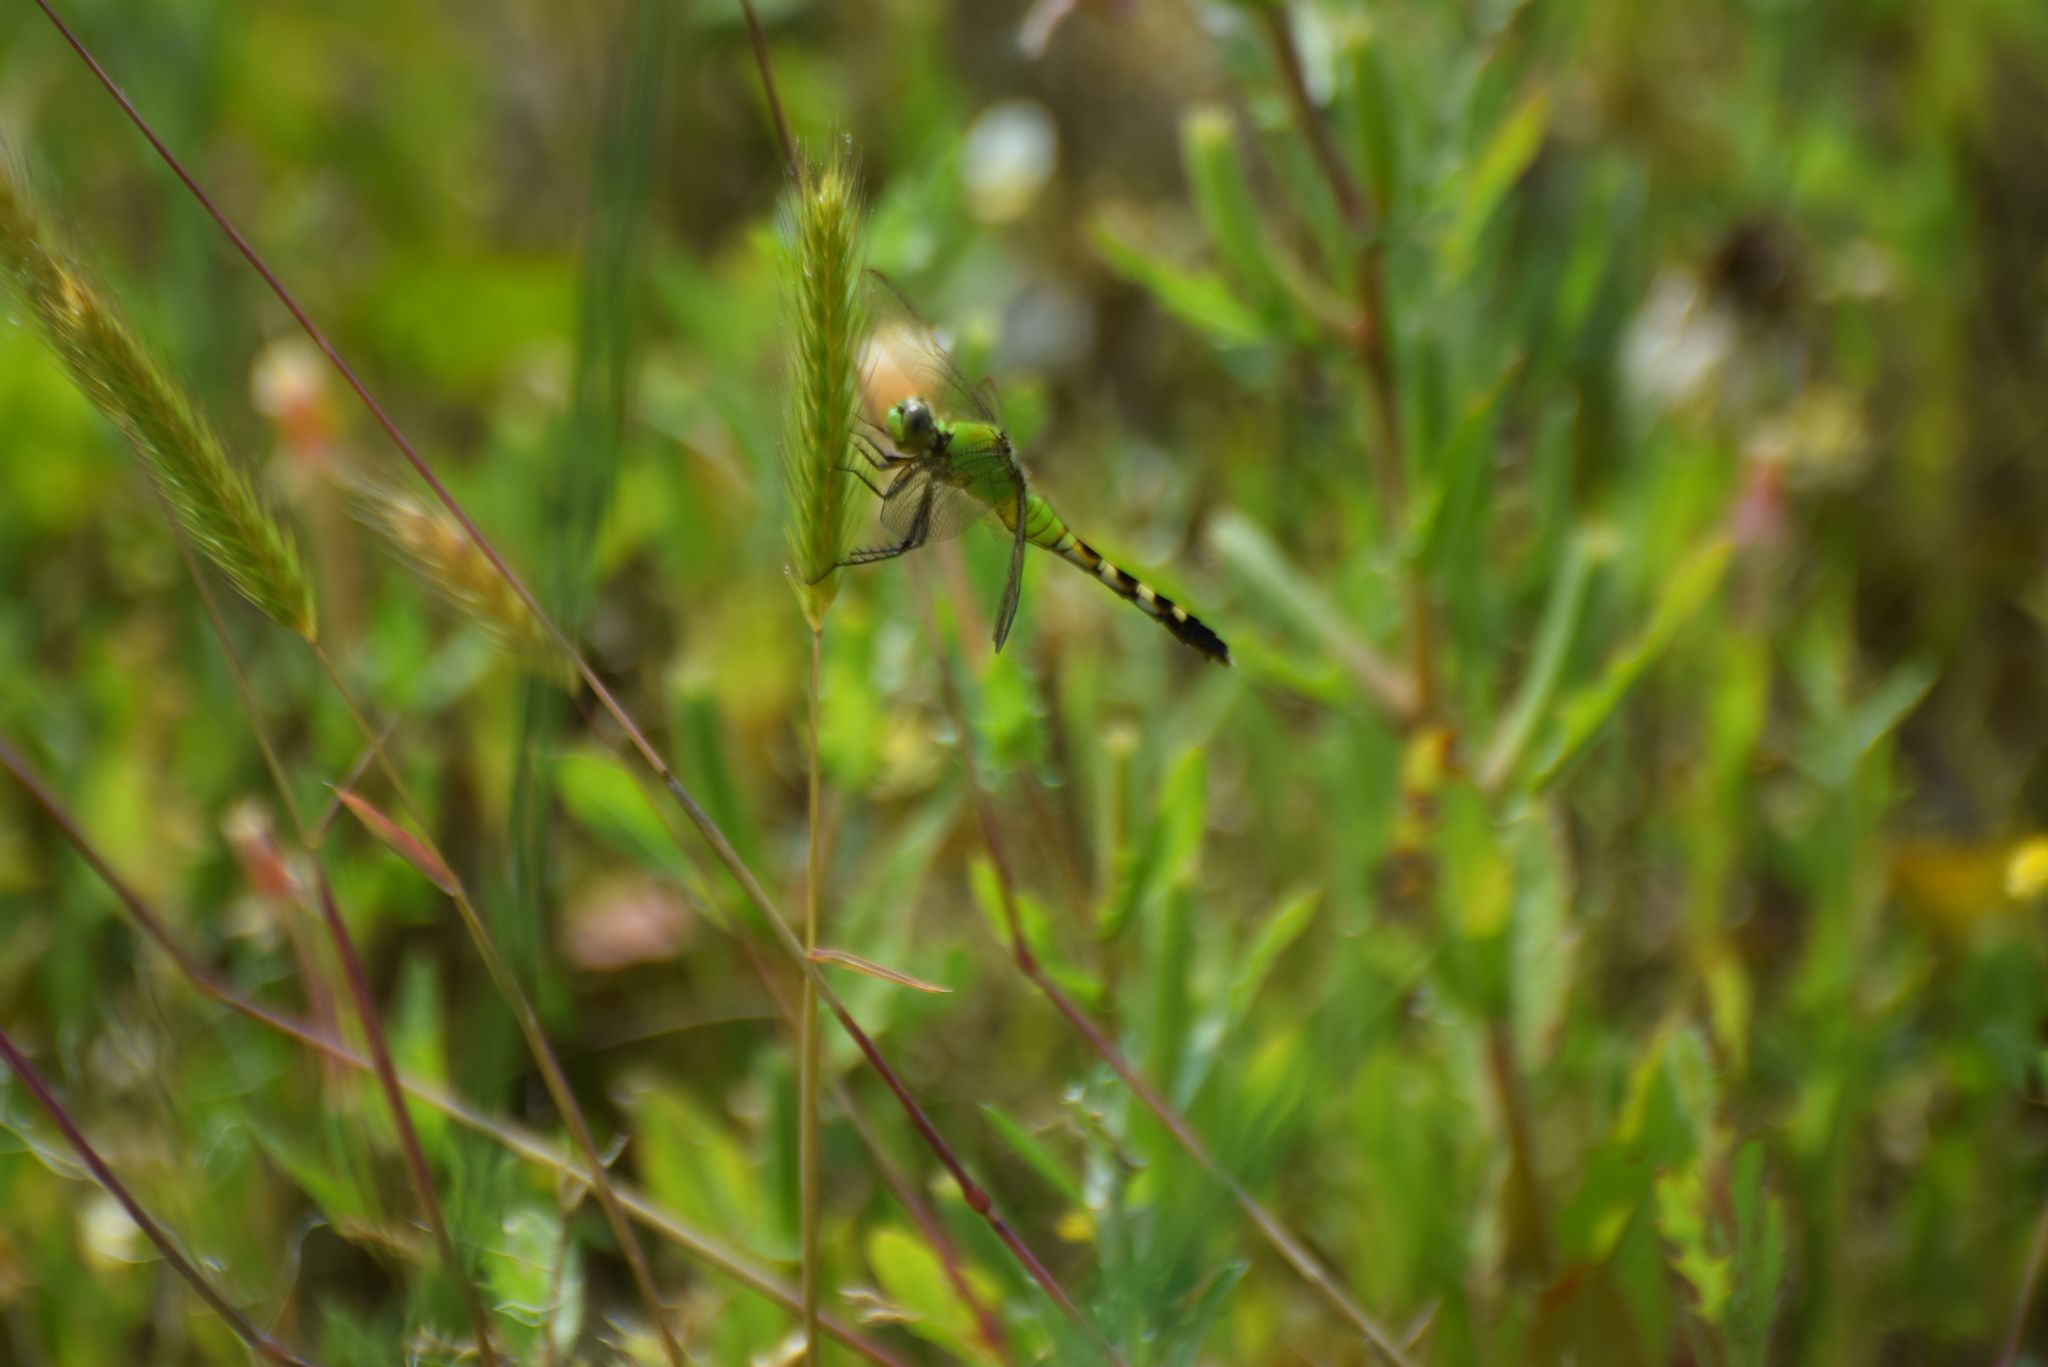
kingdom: Animalia
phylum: Arthropoda
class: Insecta
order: Odonata
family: Libellulidae
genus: Erythemis
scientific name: Erythemis simplicicollis
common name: Eastern pondhawk
